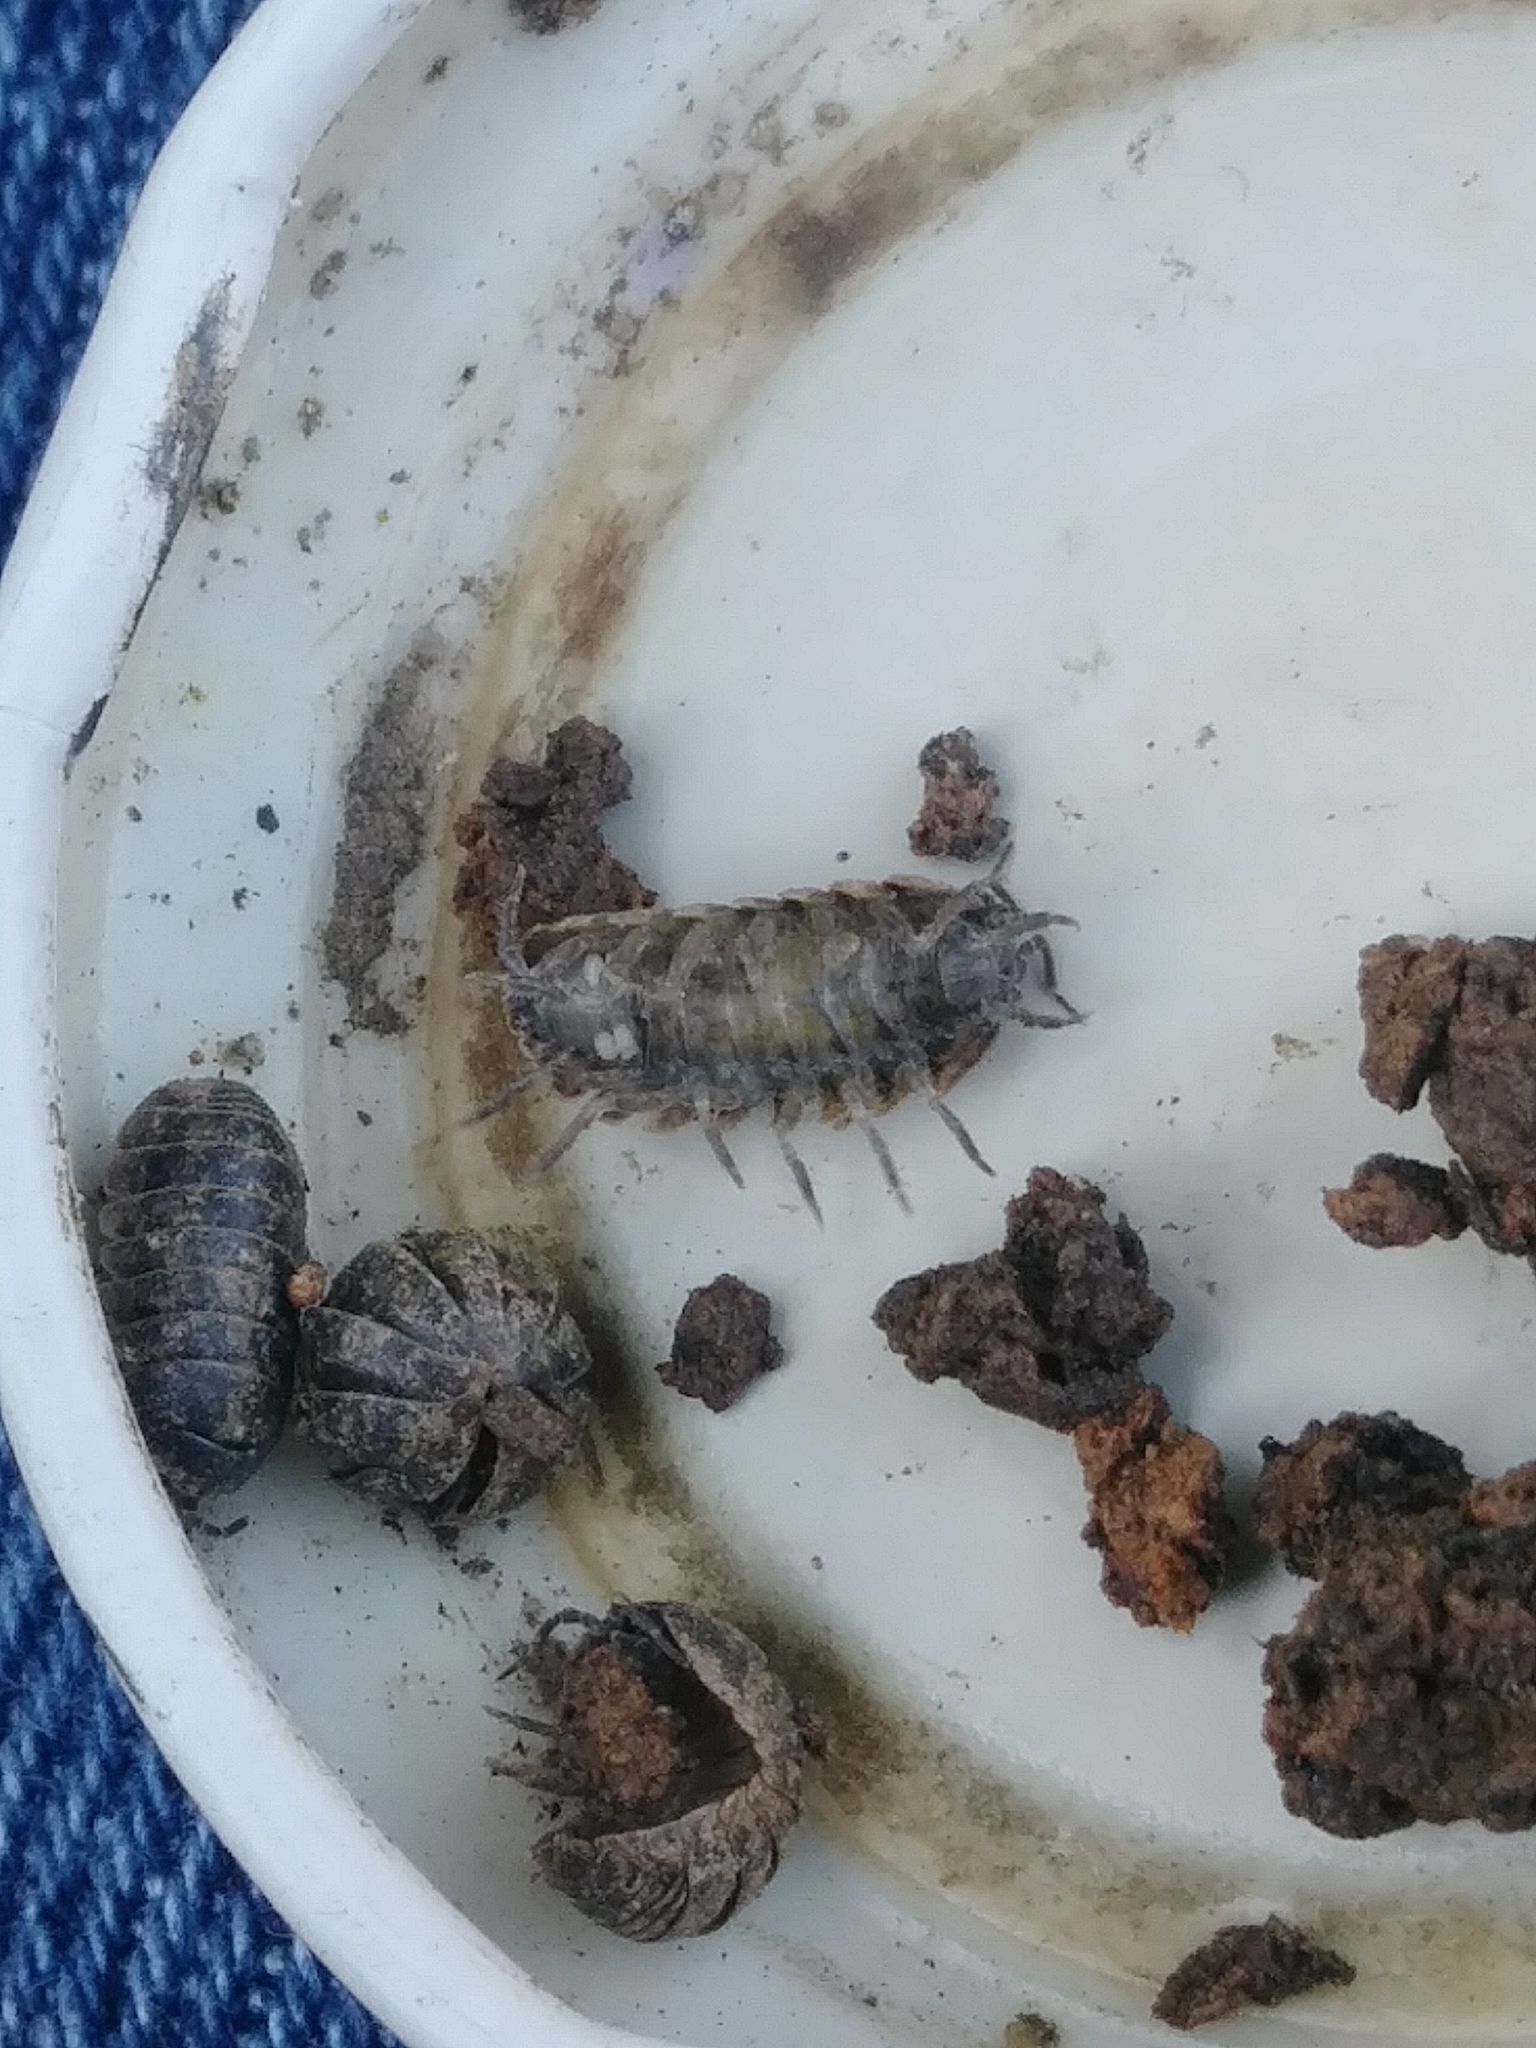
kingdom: Animalia
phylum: Arthropoda
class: Malacostraca
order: Isopoda
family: Armadillidiidae
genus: Armadillidium
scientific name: Armadillidium vulgare
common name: Common pill woodlouse
